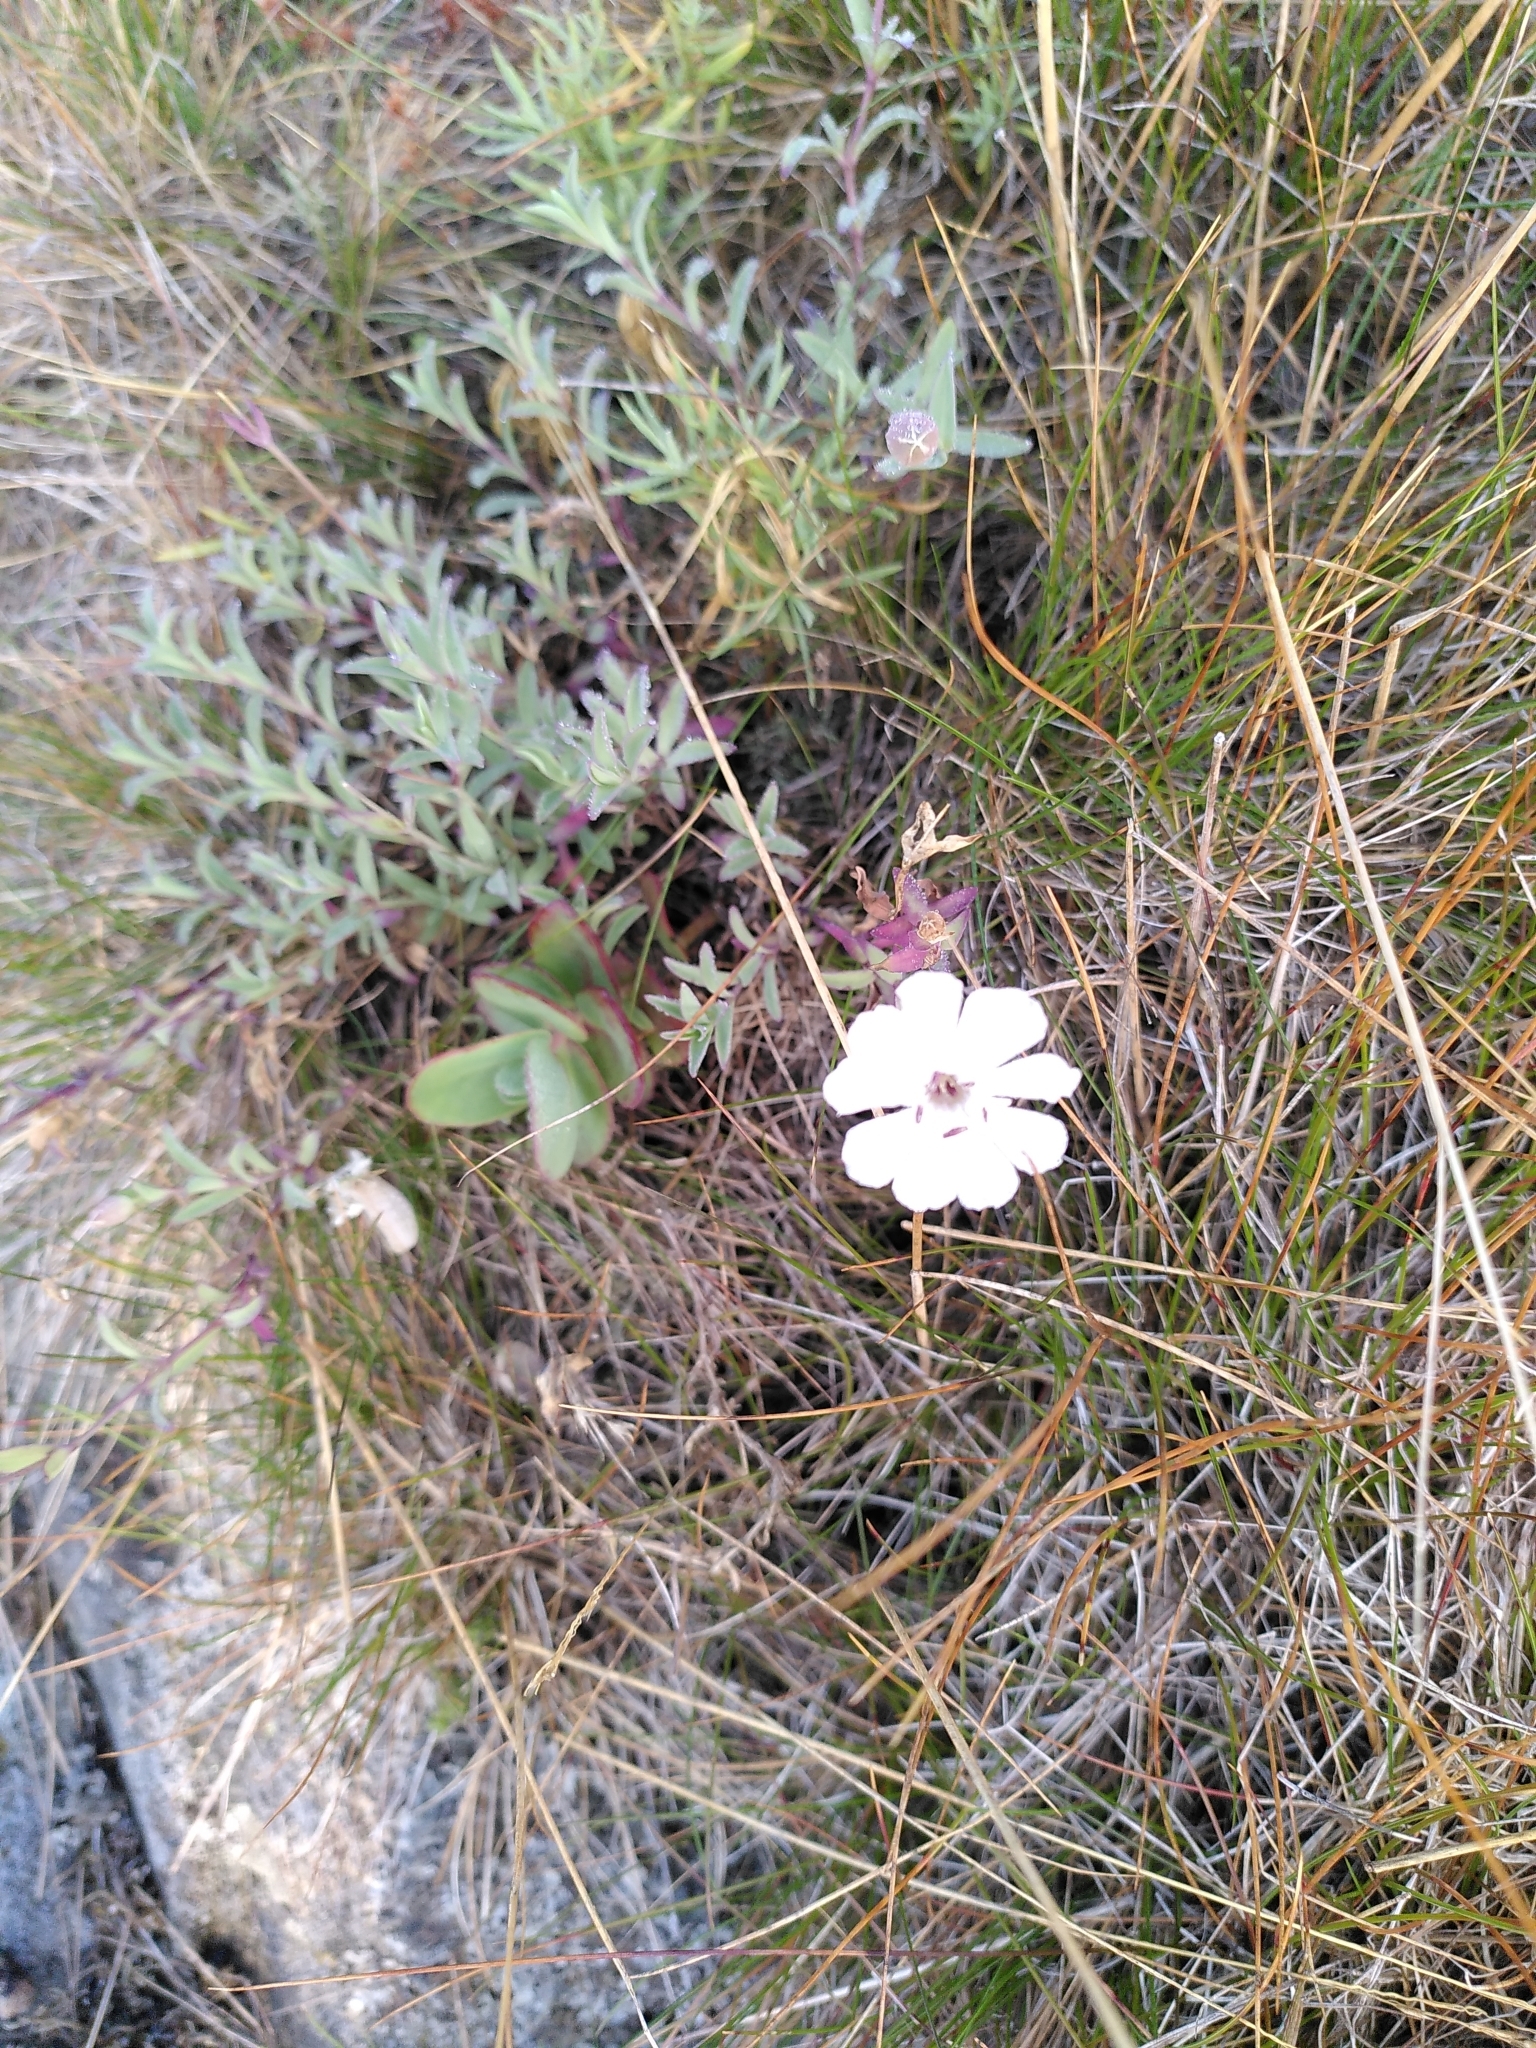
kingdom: Plantae
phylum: Tracheophyta
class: Magnoliopsida
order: Caryophyllales
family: Caryophyllaceae
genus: Silene
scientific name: Silene uniflora
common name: Sea campion
